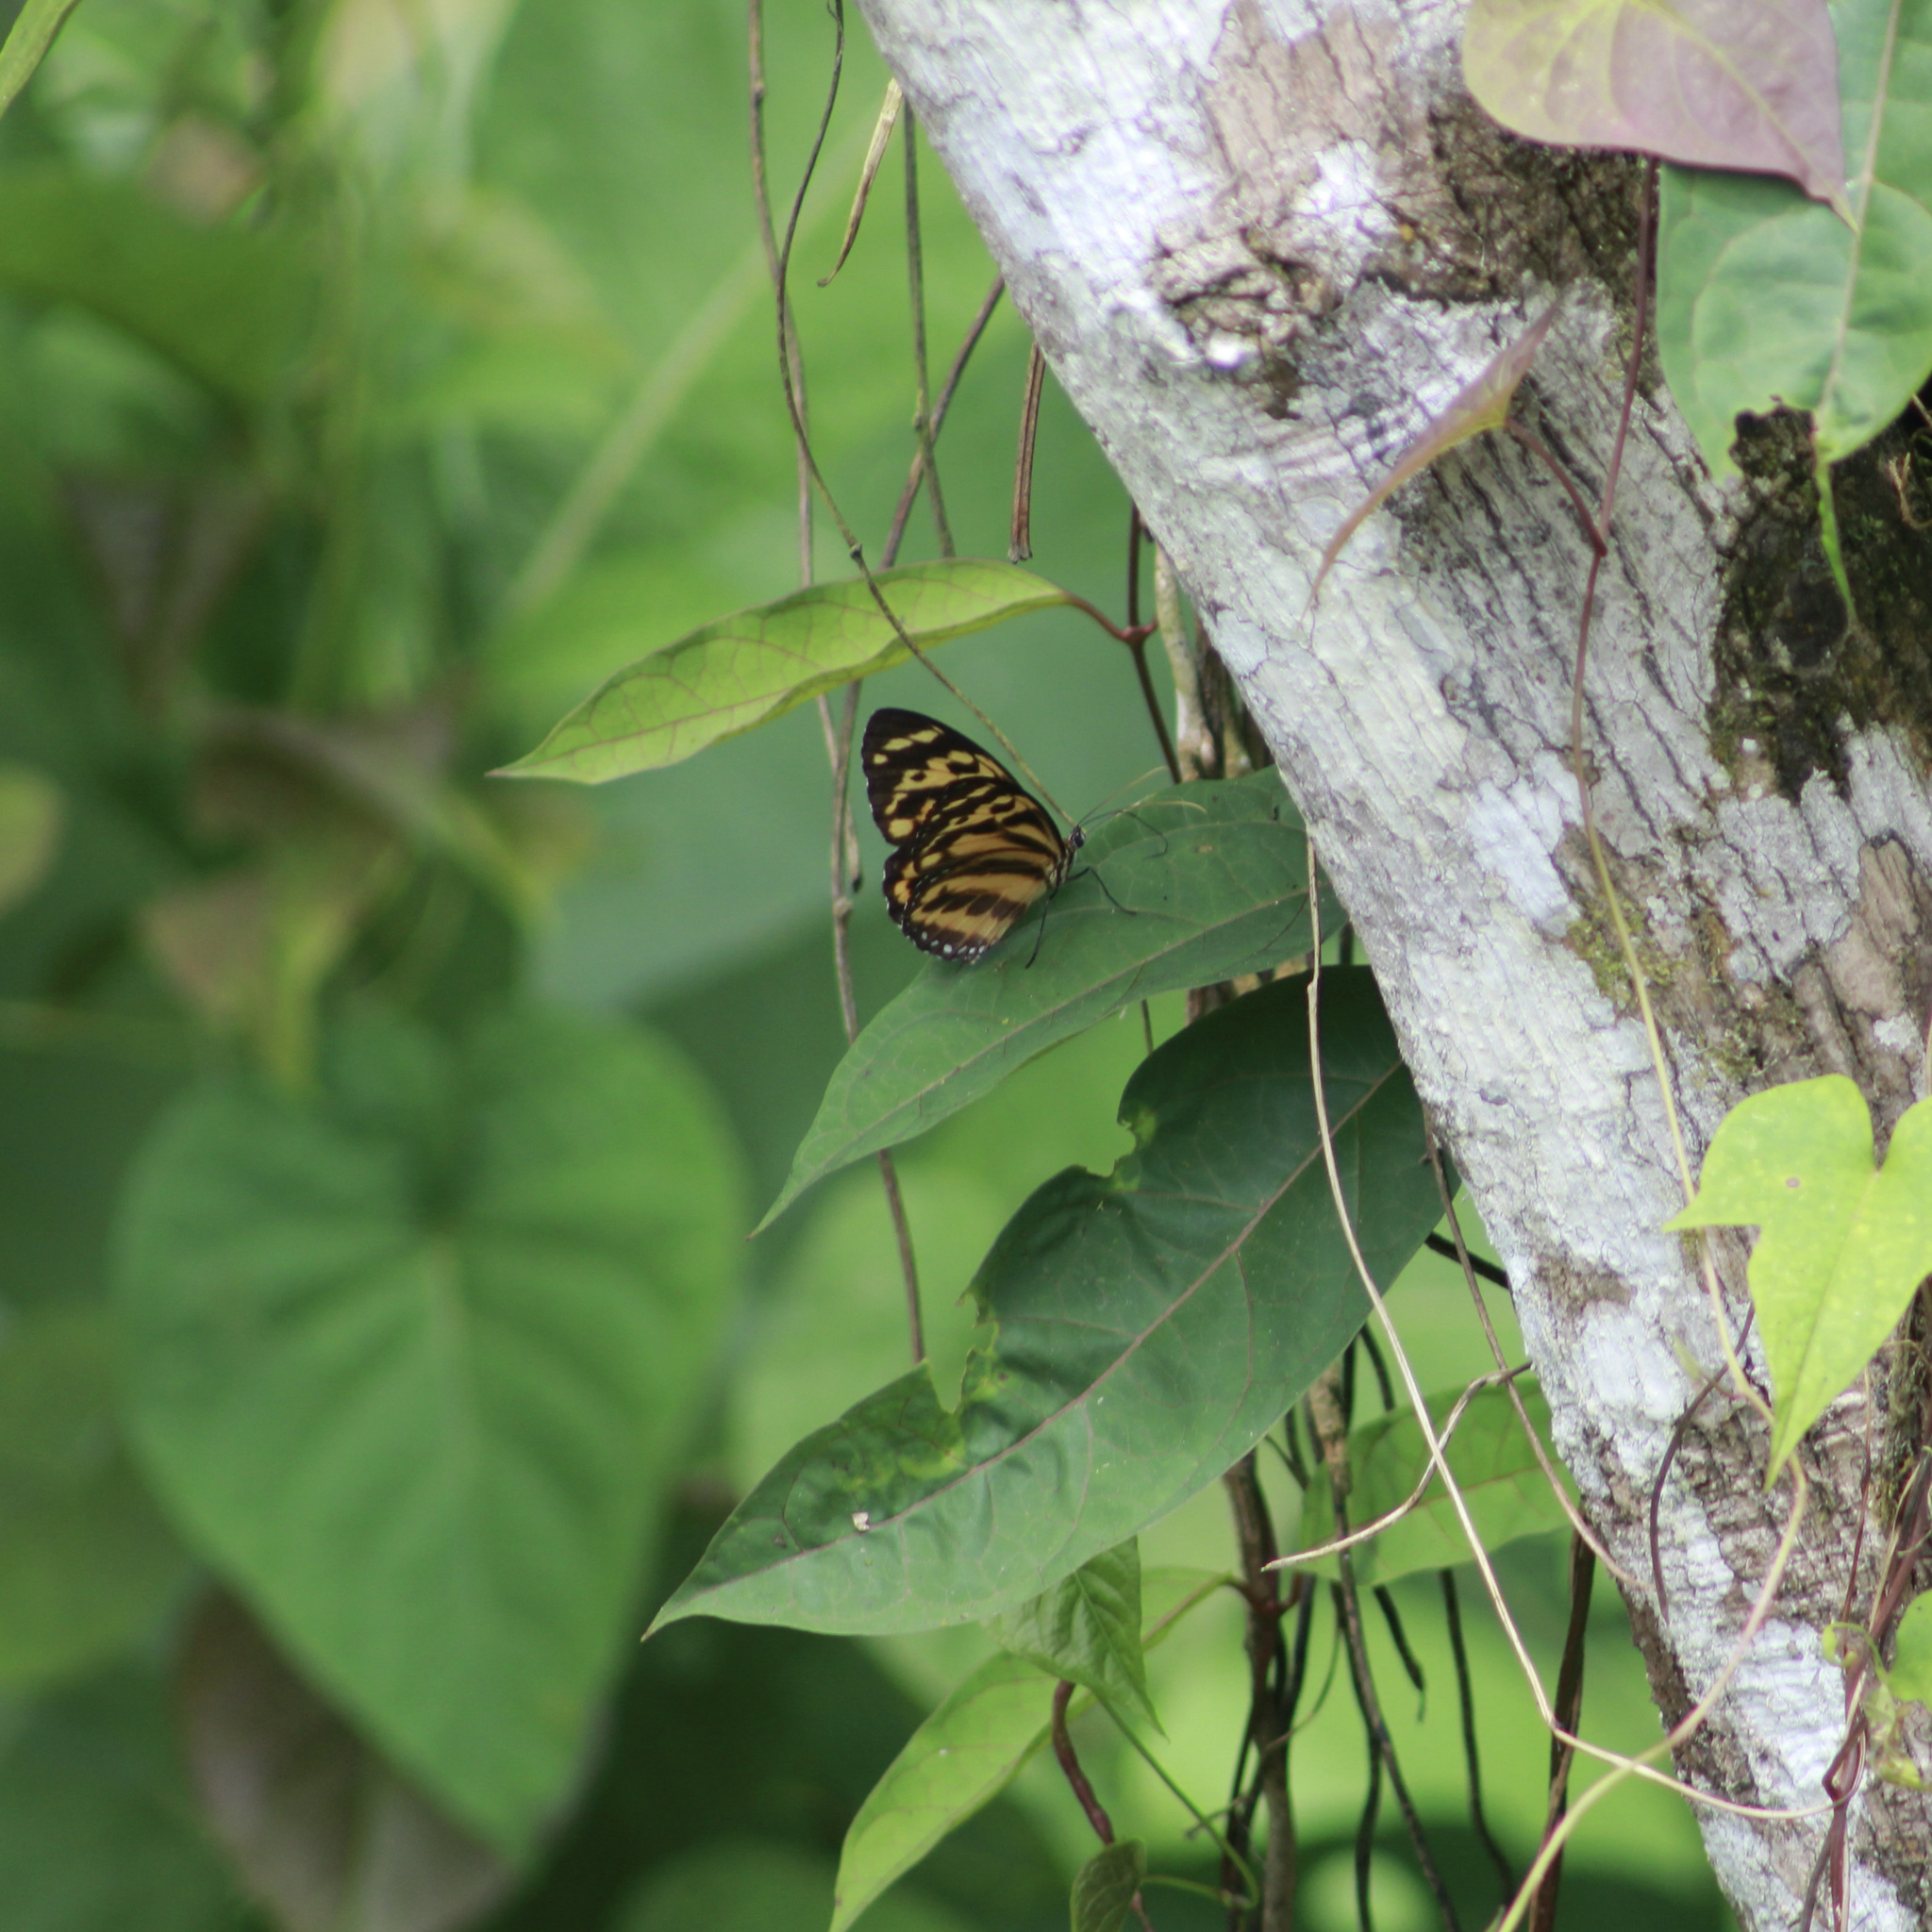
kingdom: Animalia
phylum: Arthropoda
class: Insecta
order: Lepidoptera
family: Nymphalidae
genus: Tithorea
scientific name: Tithorea harmonia
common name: Harmonia tigerwing
